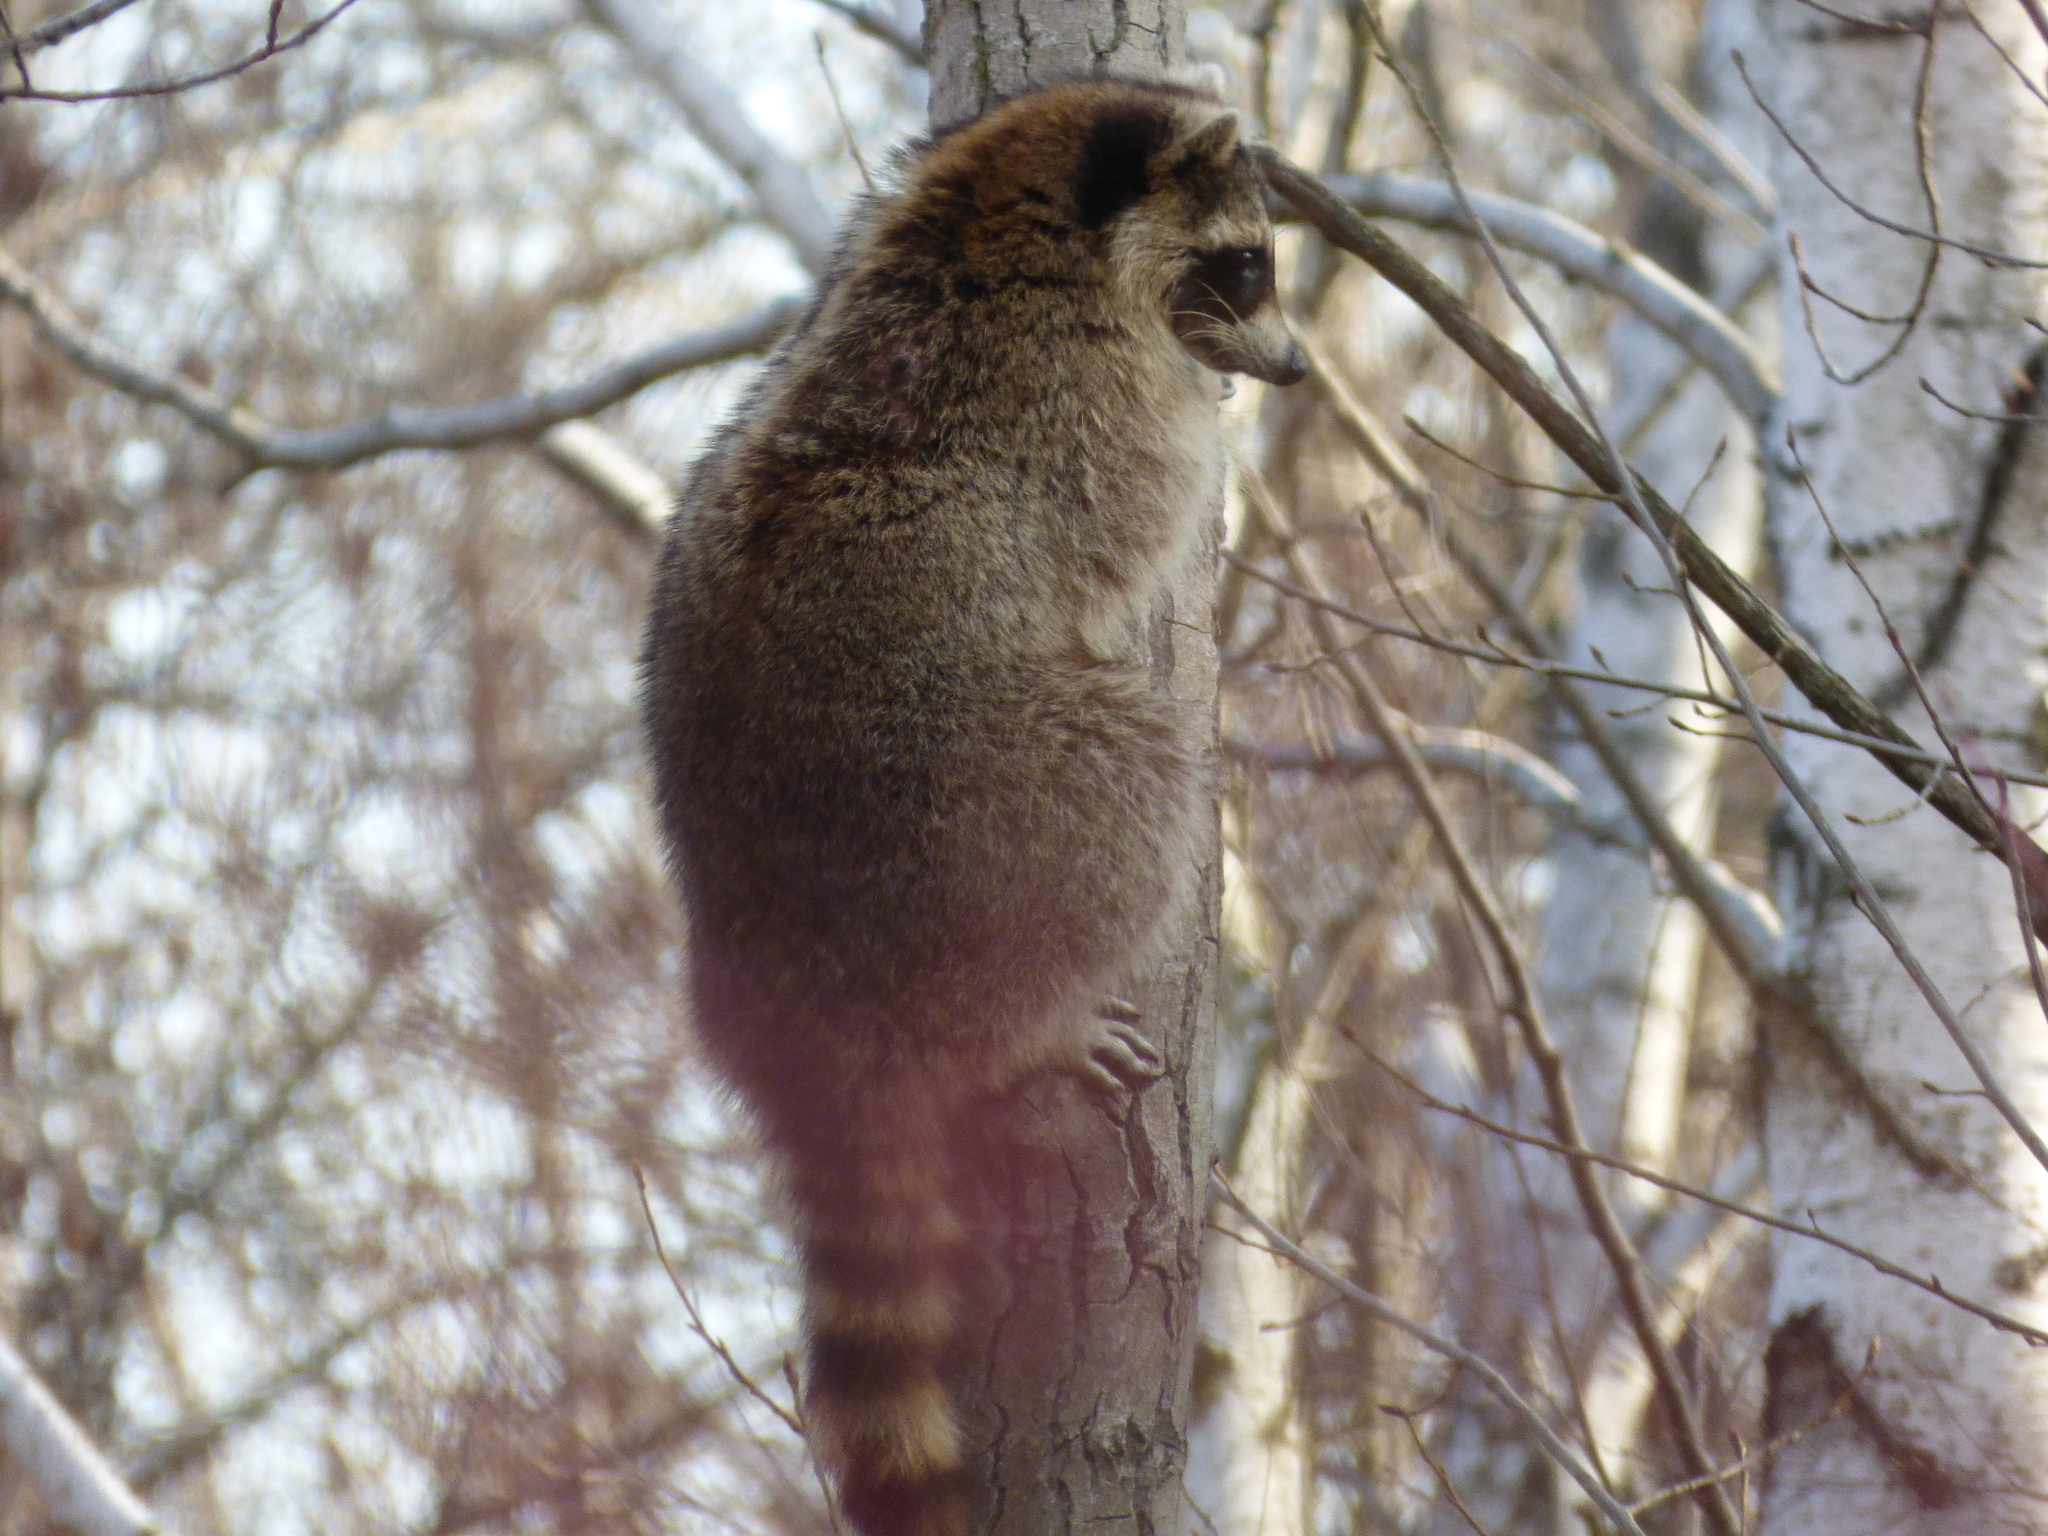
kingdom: Animalia
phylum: Chordata
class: Mammalia
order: Carnivora
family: Procyonidae
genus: Procyon
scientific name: Procyon lotor
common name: Raccoon
